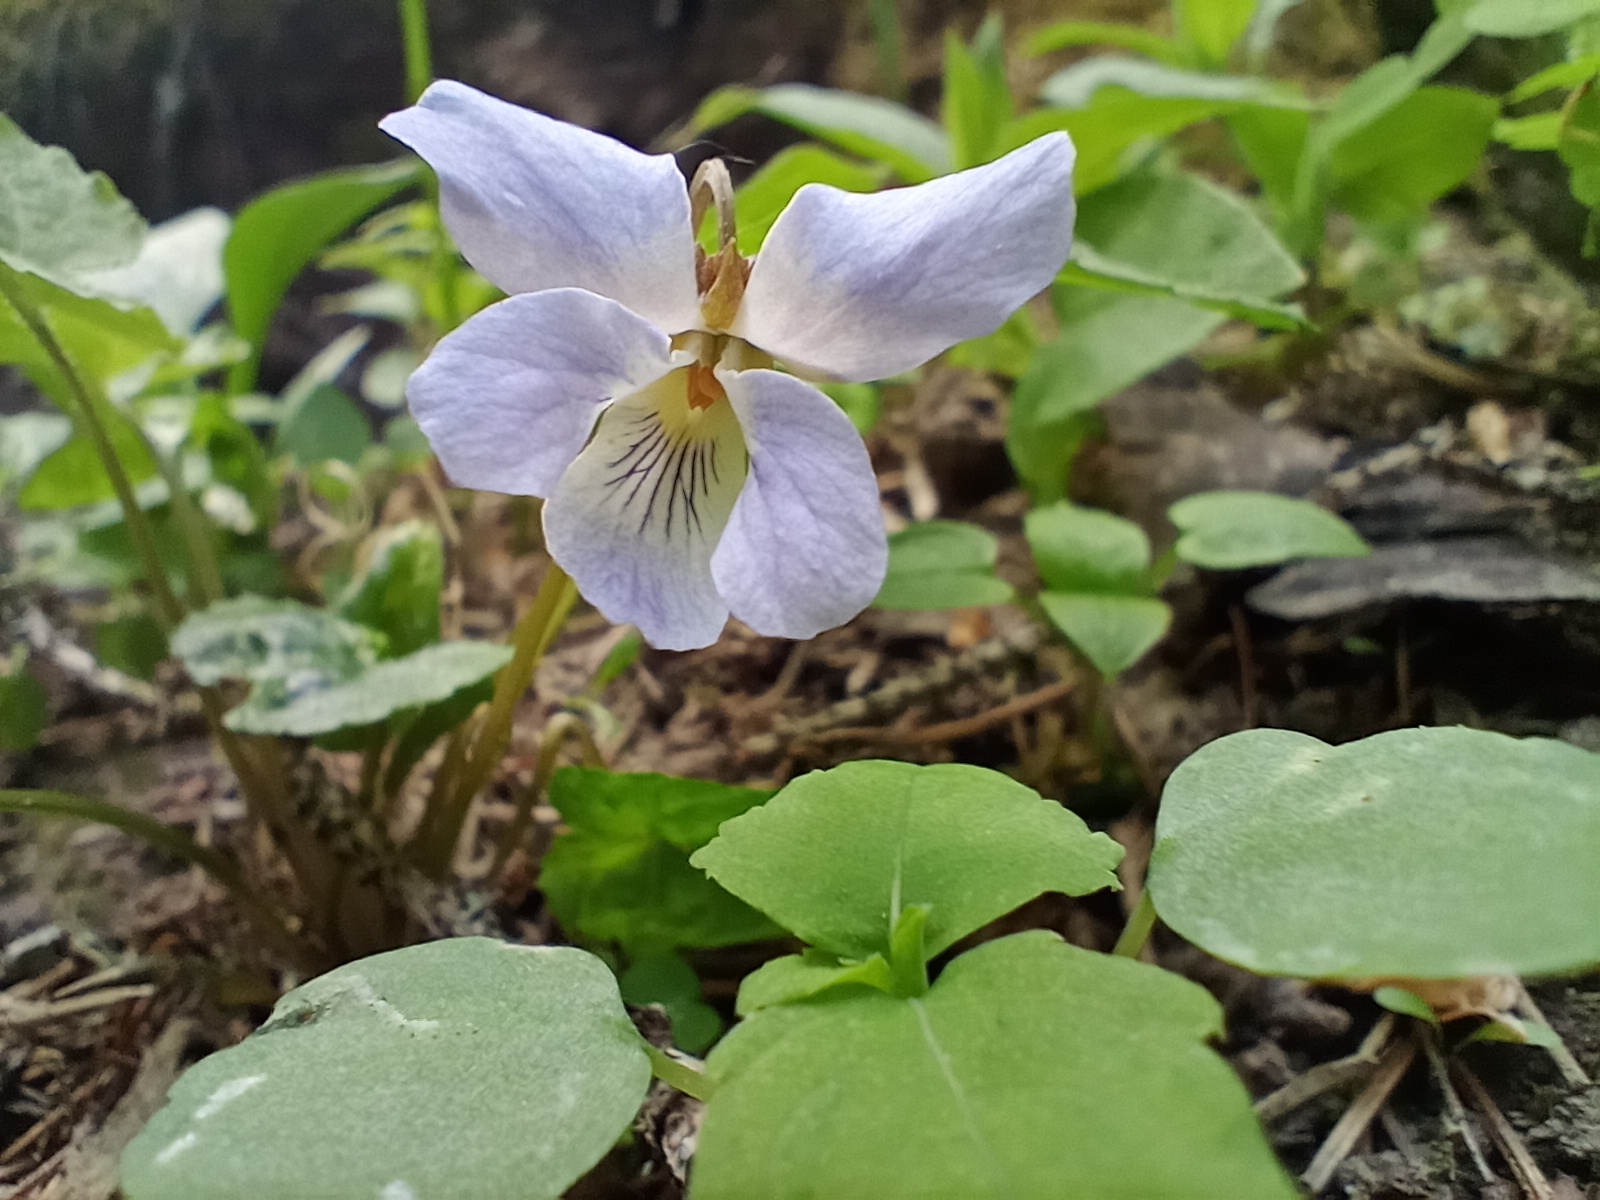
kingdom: Plantae
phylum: Tracheophyta
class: Magnoliopsida
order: Malpighiales
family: Violaceae
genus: Viola
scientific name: Viola selkirkii
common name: Selkirk's violet
